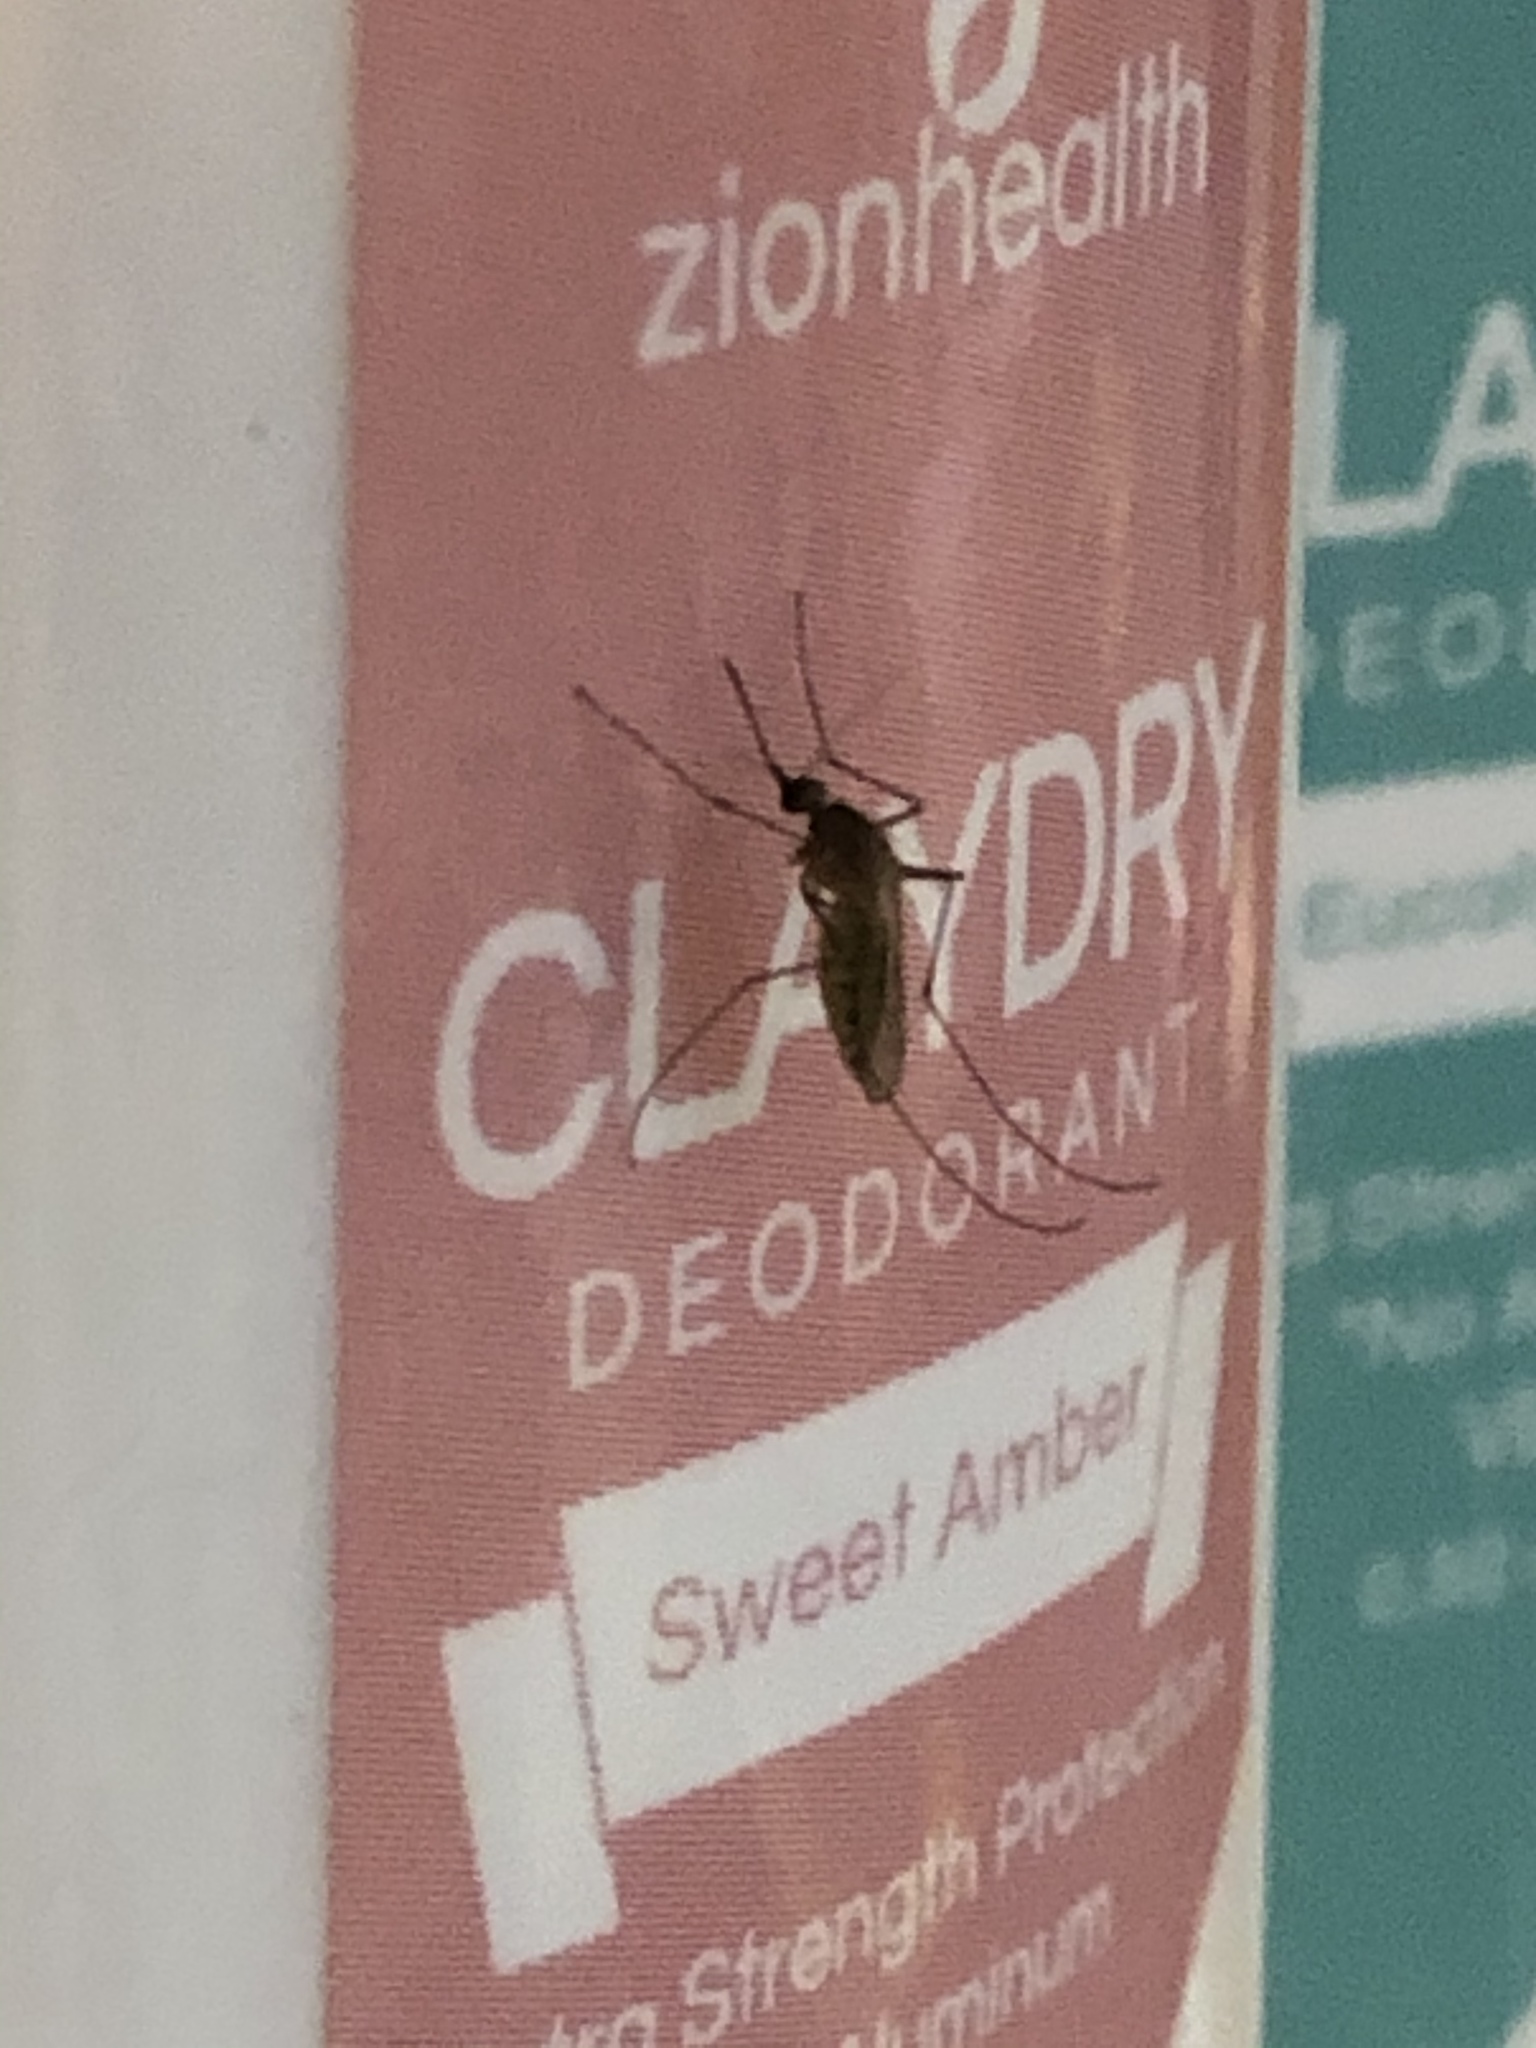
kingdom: Animalia
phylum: Arthropoda
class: Insecta
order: Diptera
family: Culicidae
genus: Culex
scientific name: Culex quinquefasciatus
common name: Southern house mosquito
